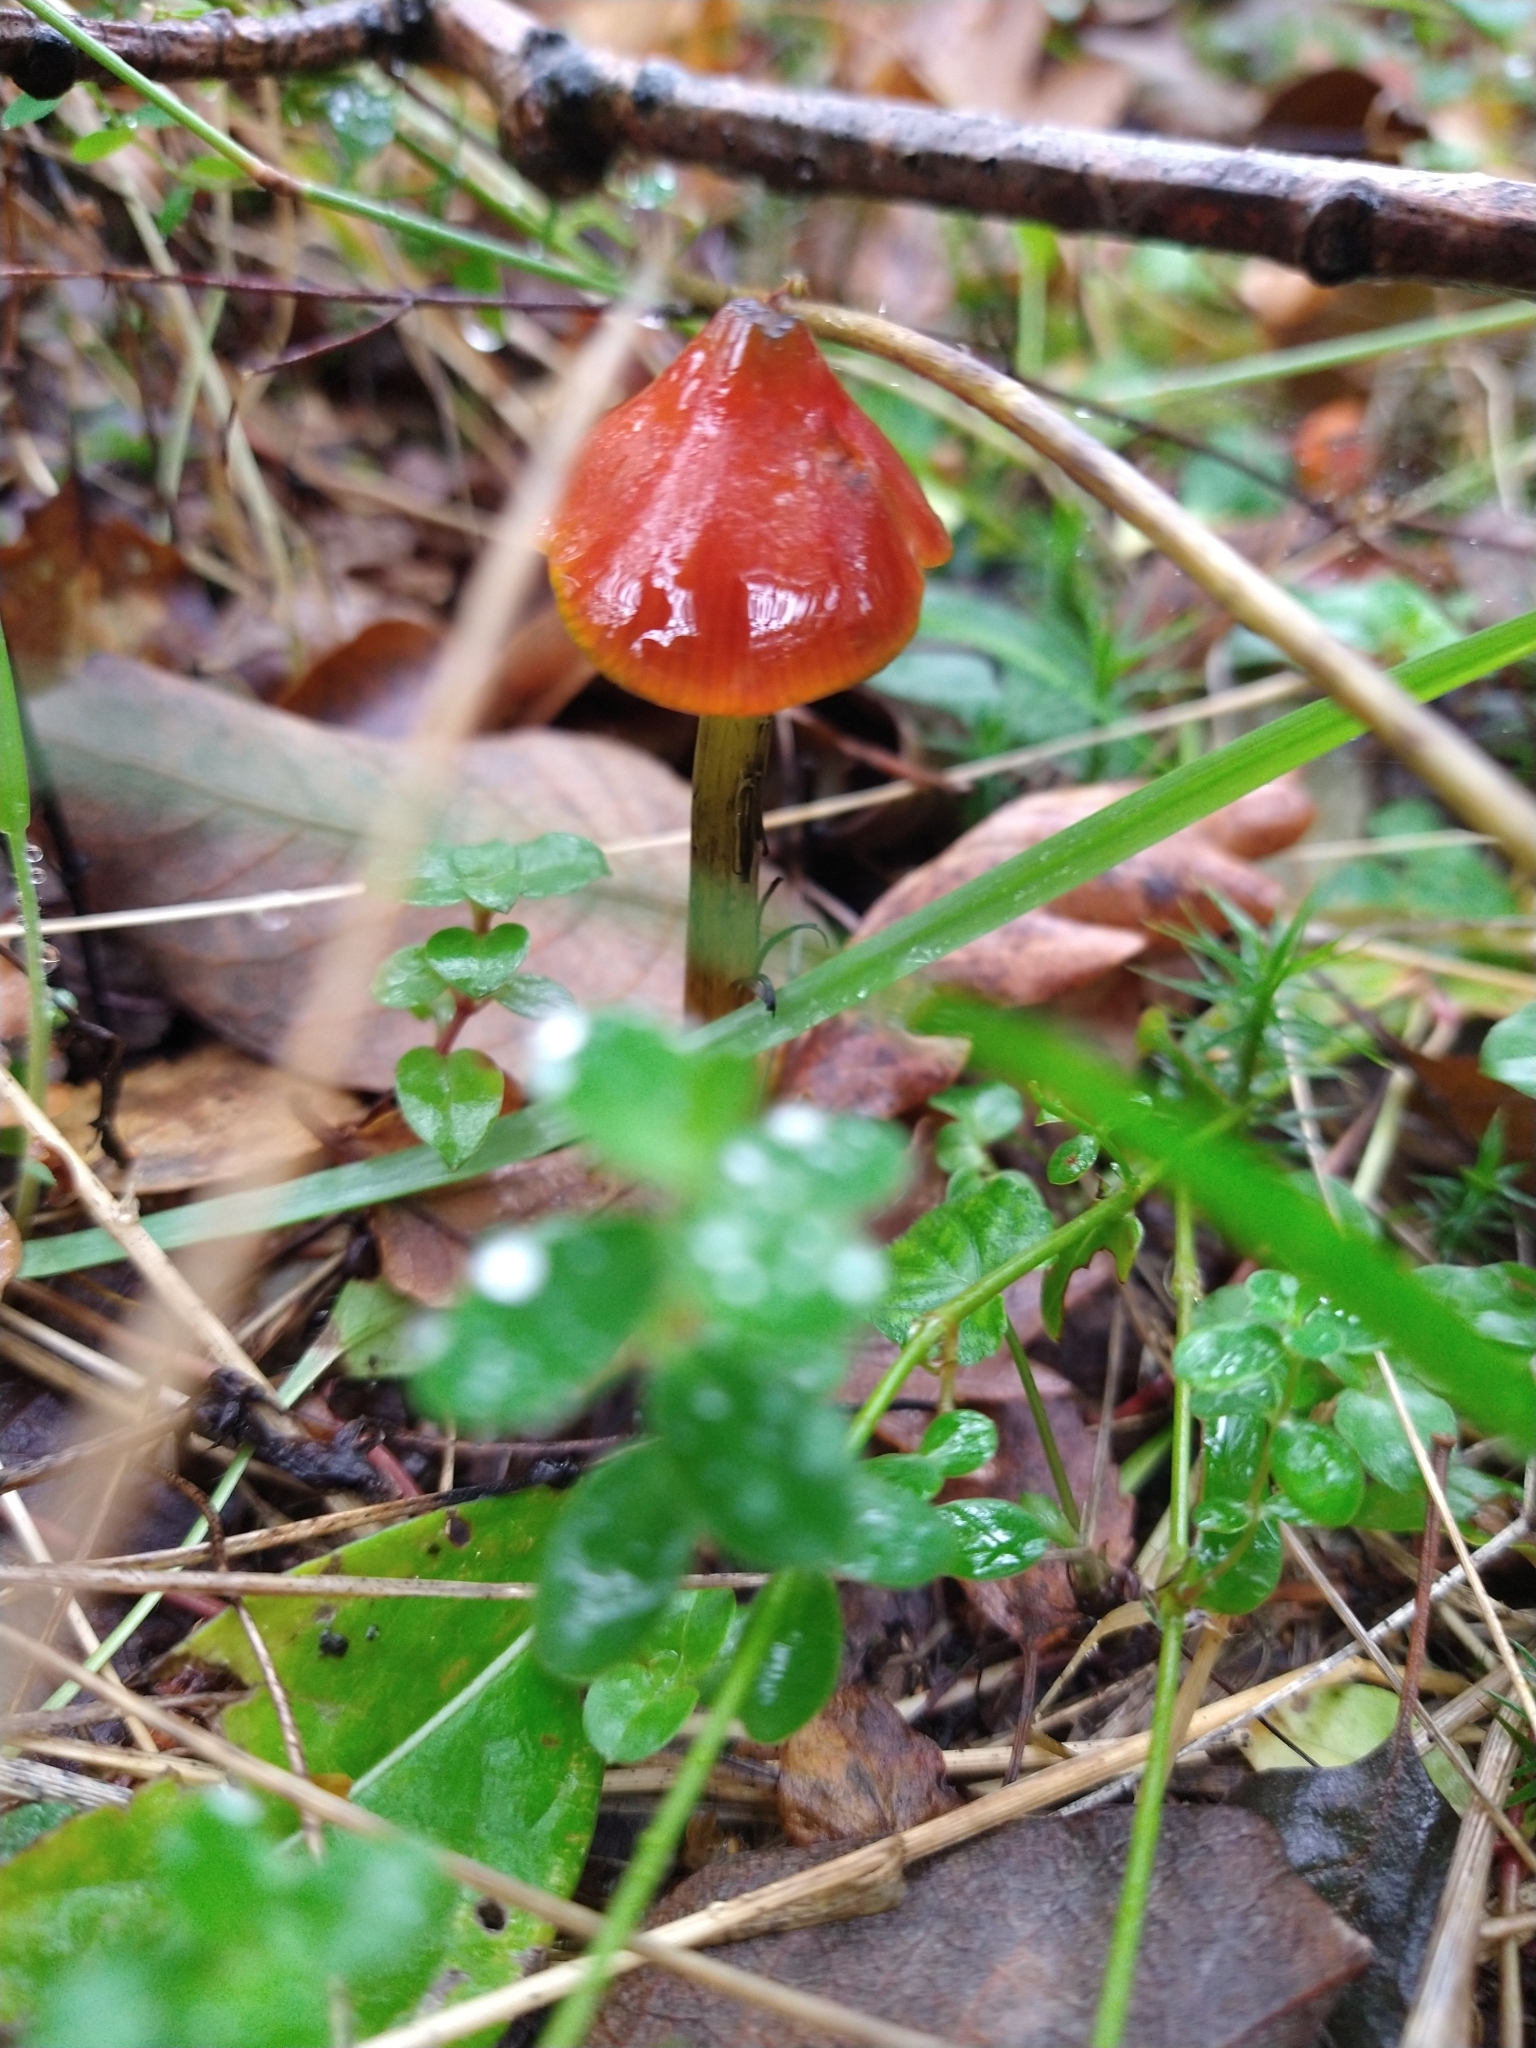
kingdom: Fungi
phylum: Basidiomycota
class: Agaricomycetes
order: Agaricales
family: Hygrophoraceae
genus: Hygrocybe
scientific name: Hygrocybe conica
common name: Blackening wax-cap
